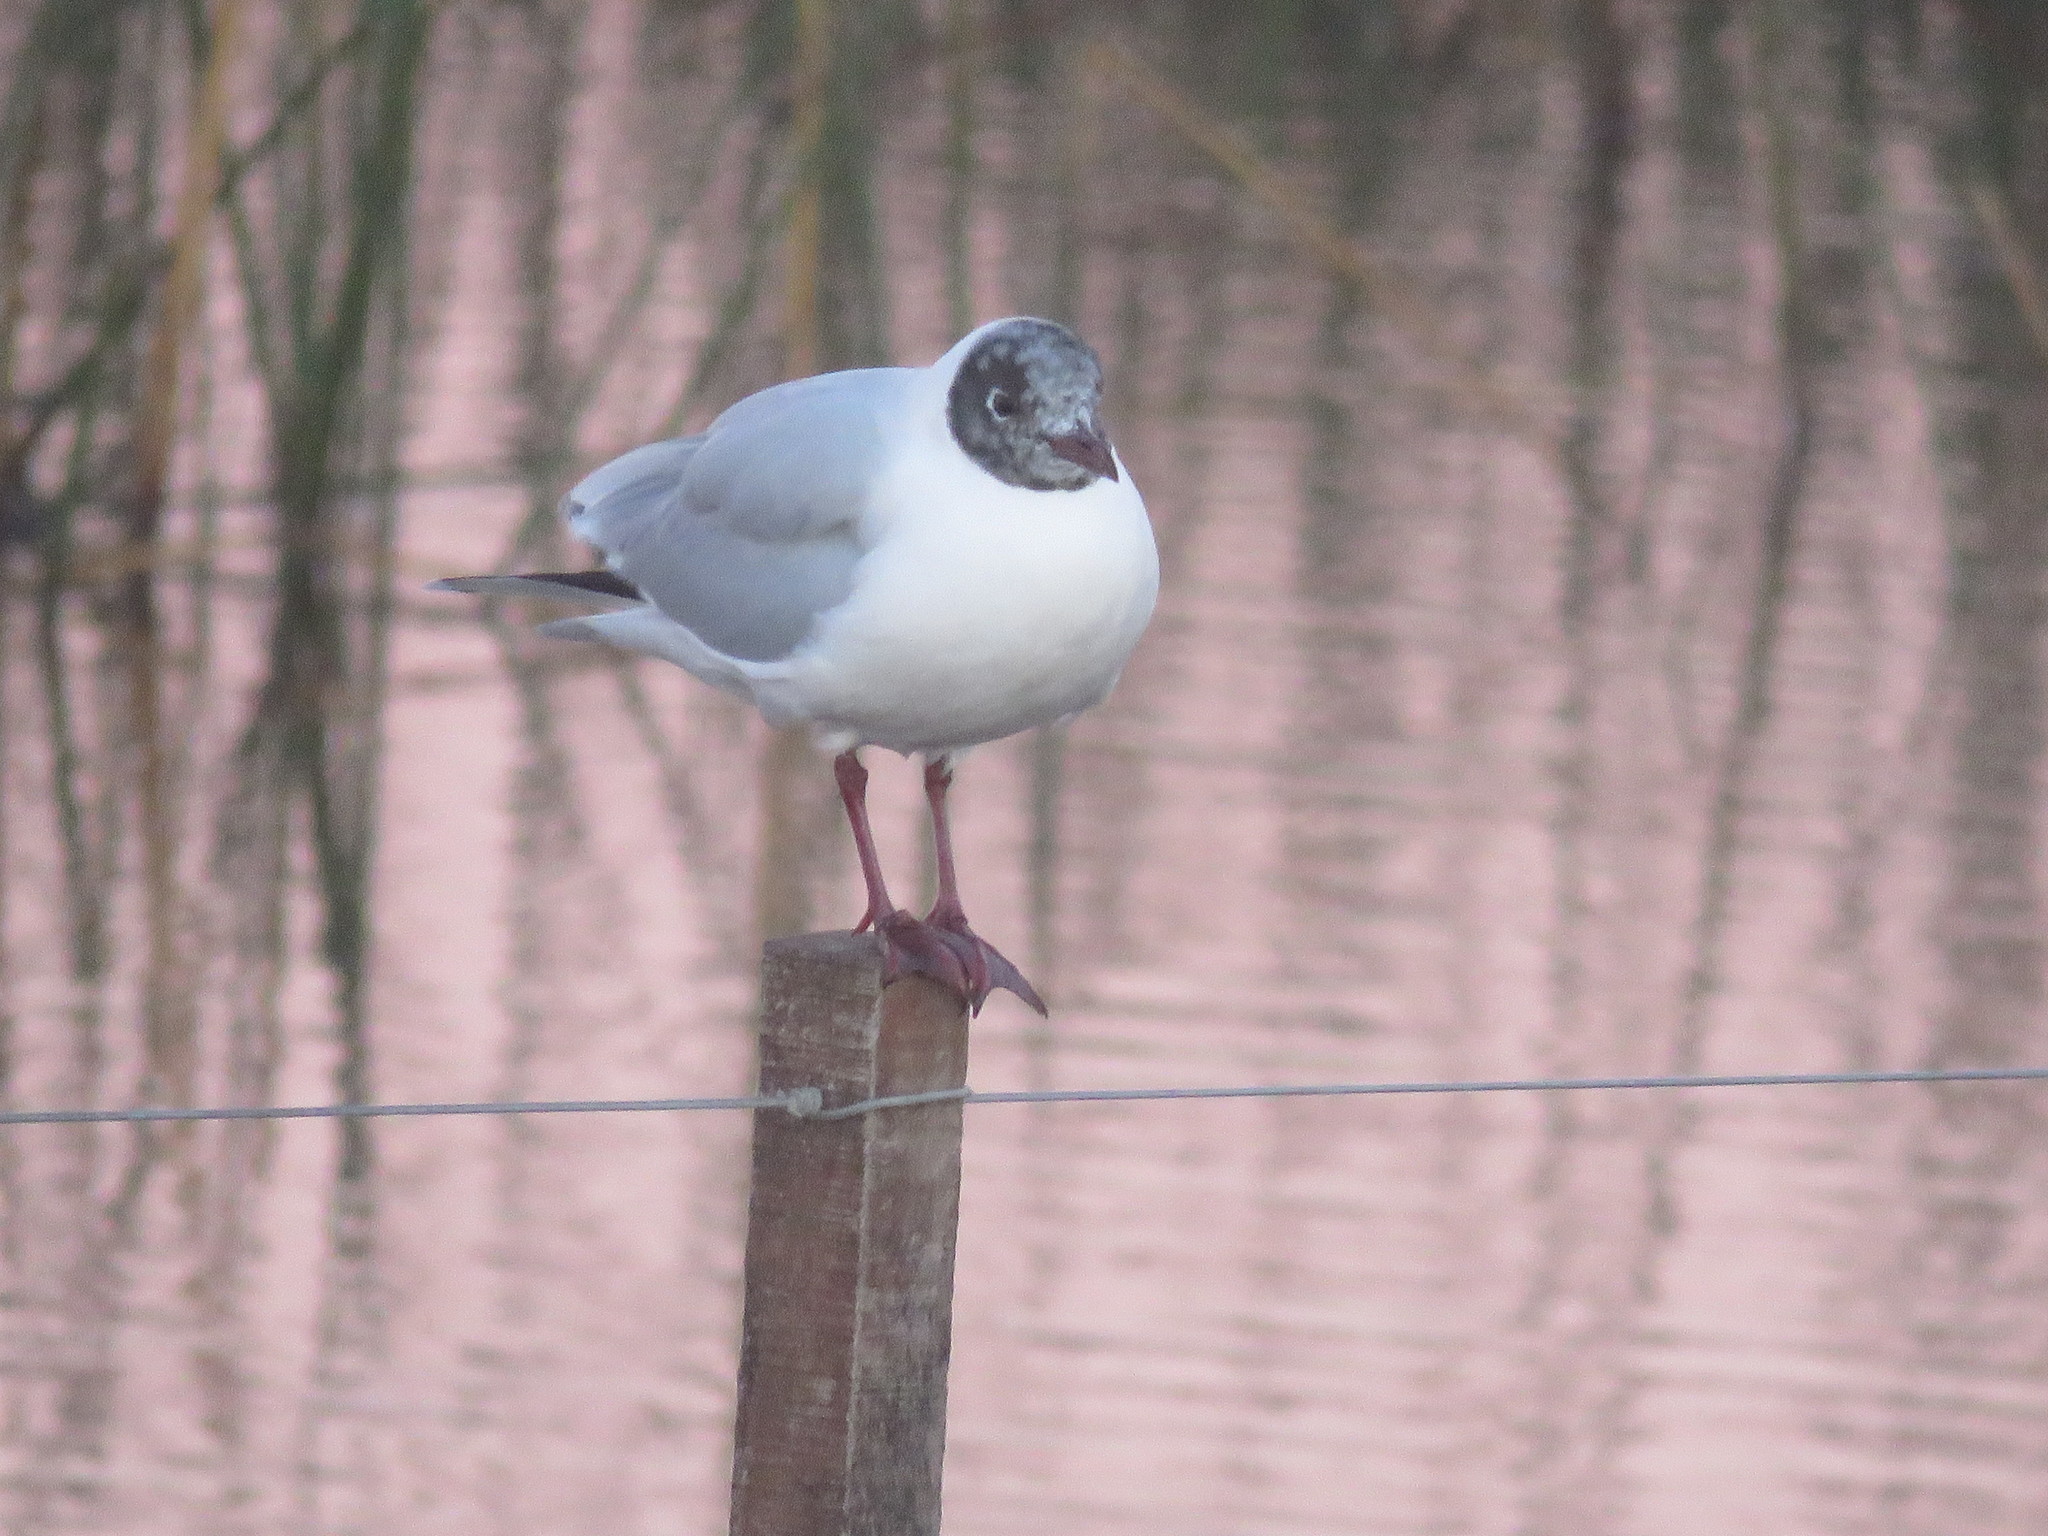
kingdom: Animalia
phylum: Chordata
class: Aves
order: Charadriiformes
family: Laridae
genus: Chroicocephalus
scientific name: Chroicocephalus maculipennis
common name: Brown-hooded gull
